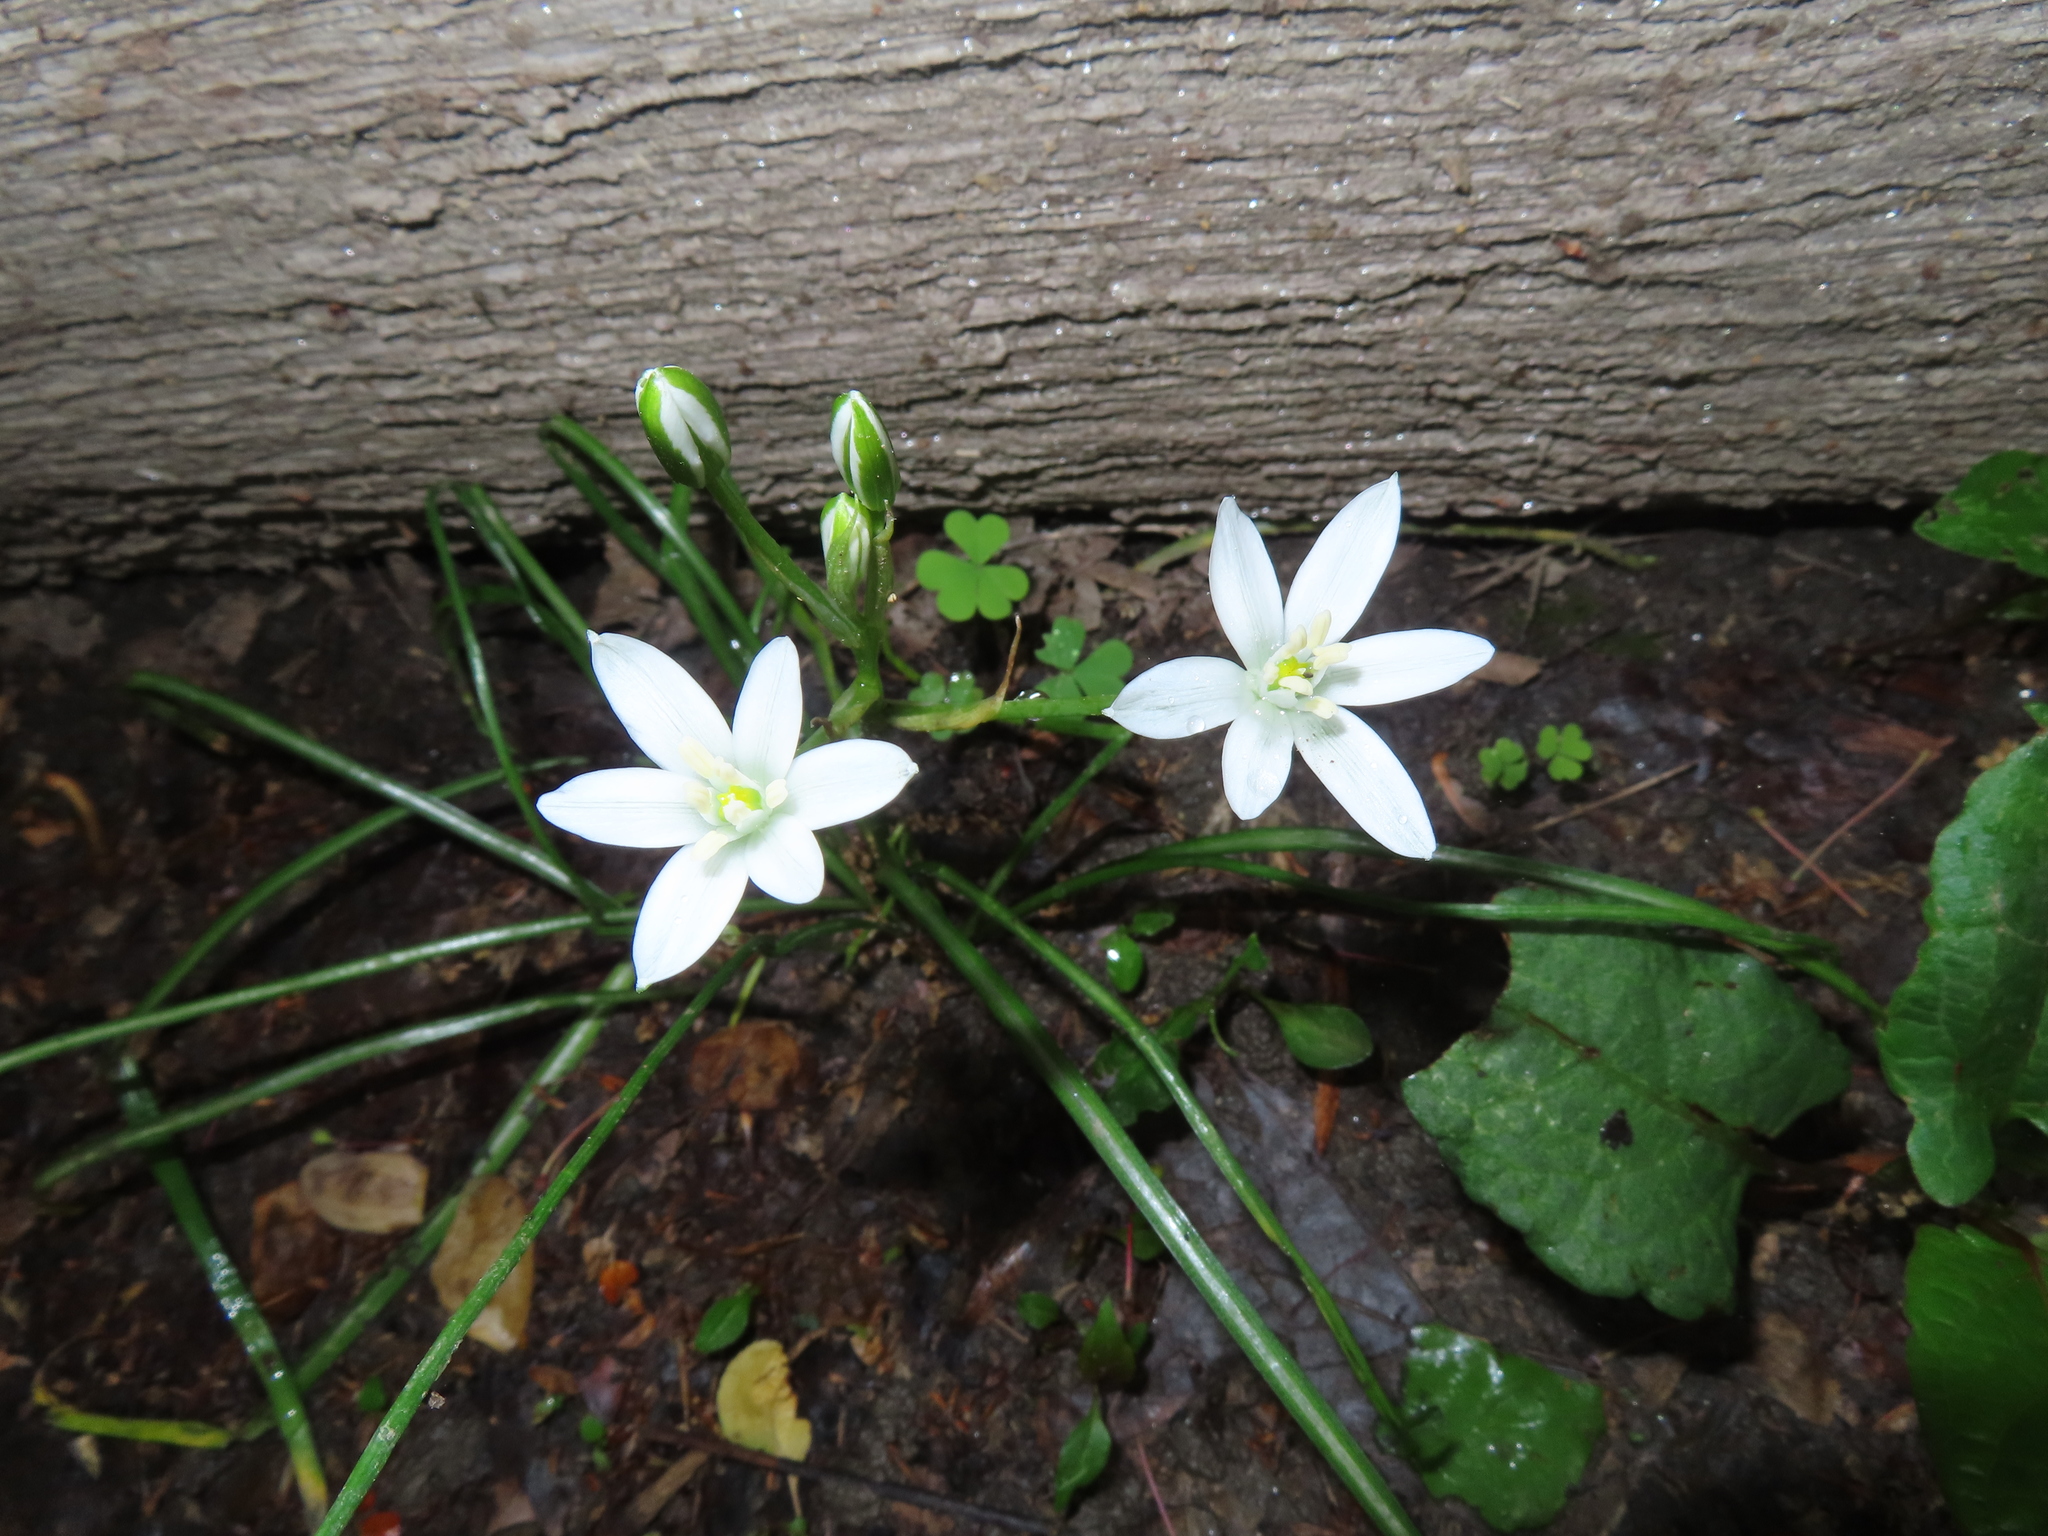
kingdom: Plantae
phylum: Tracheophyta
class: Liliopsida
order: Asparagales
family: Asparagaceae
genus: Ornithogalum
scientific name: Ornithogalum umbellatum
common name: Garden star-of-bethlehem
